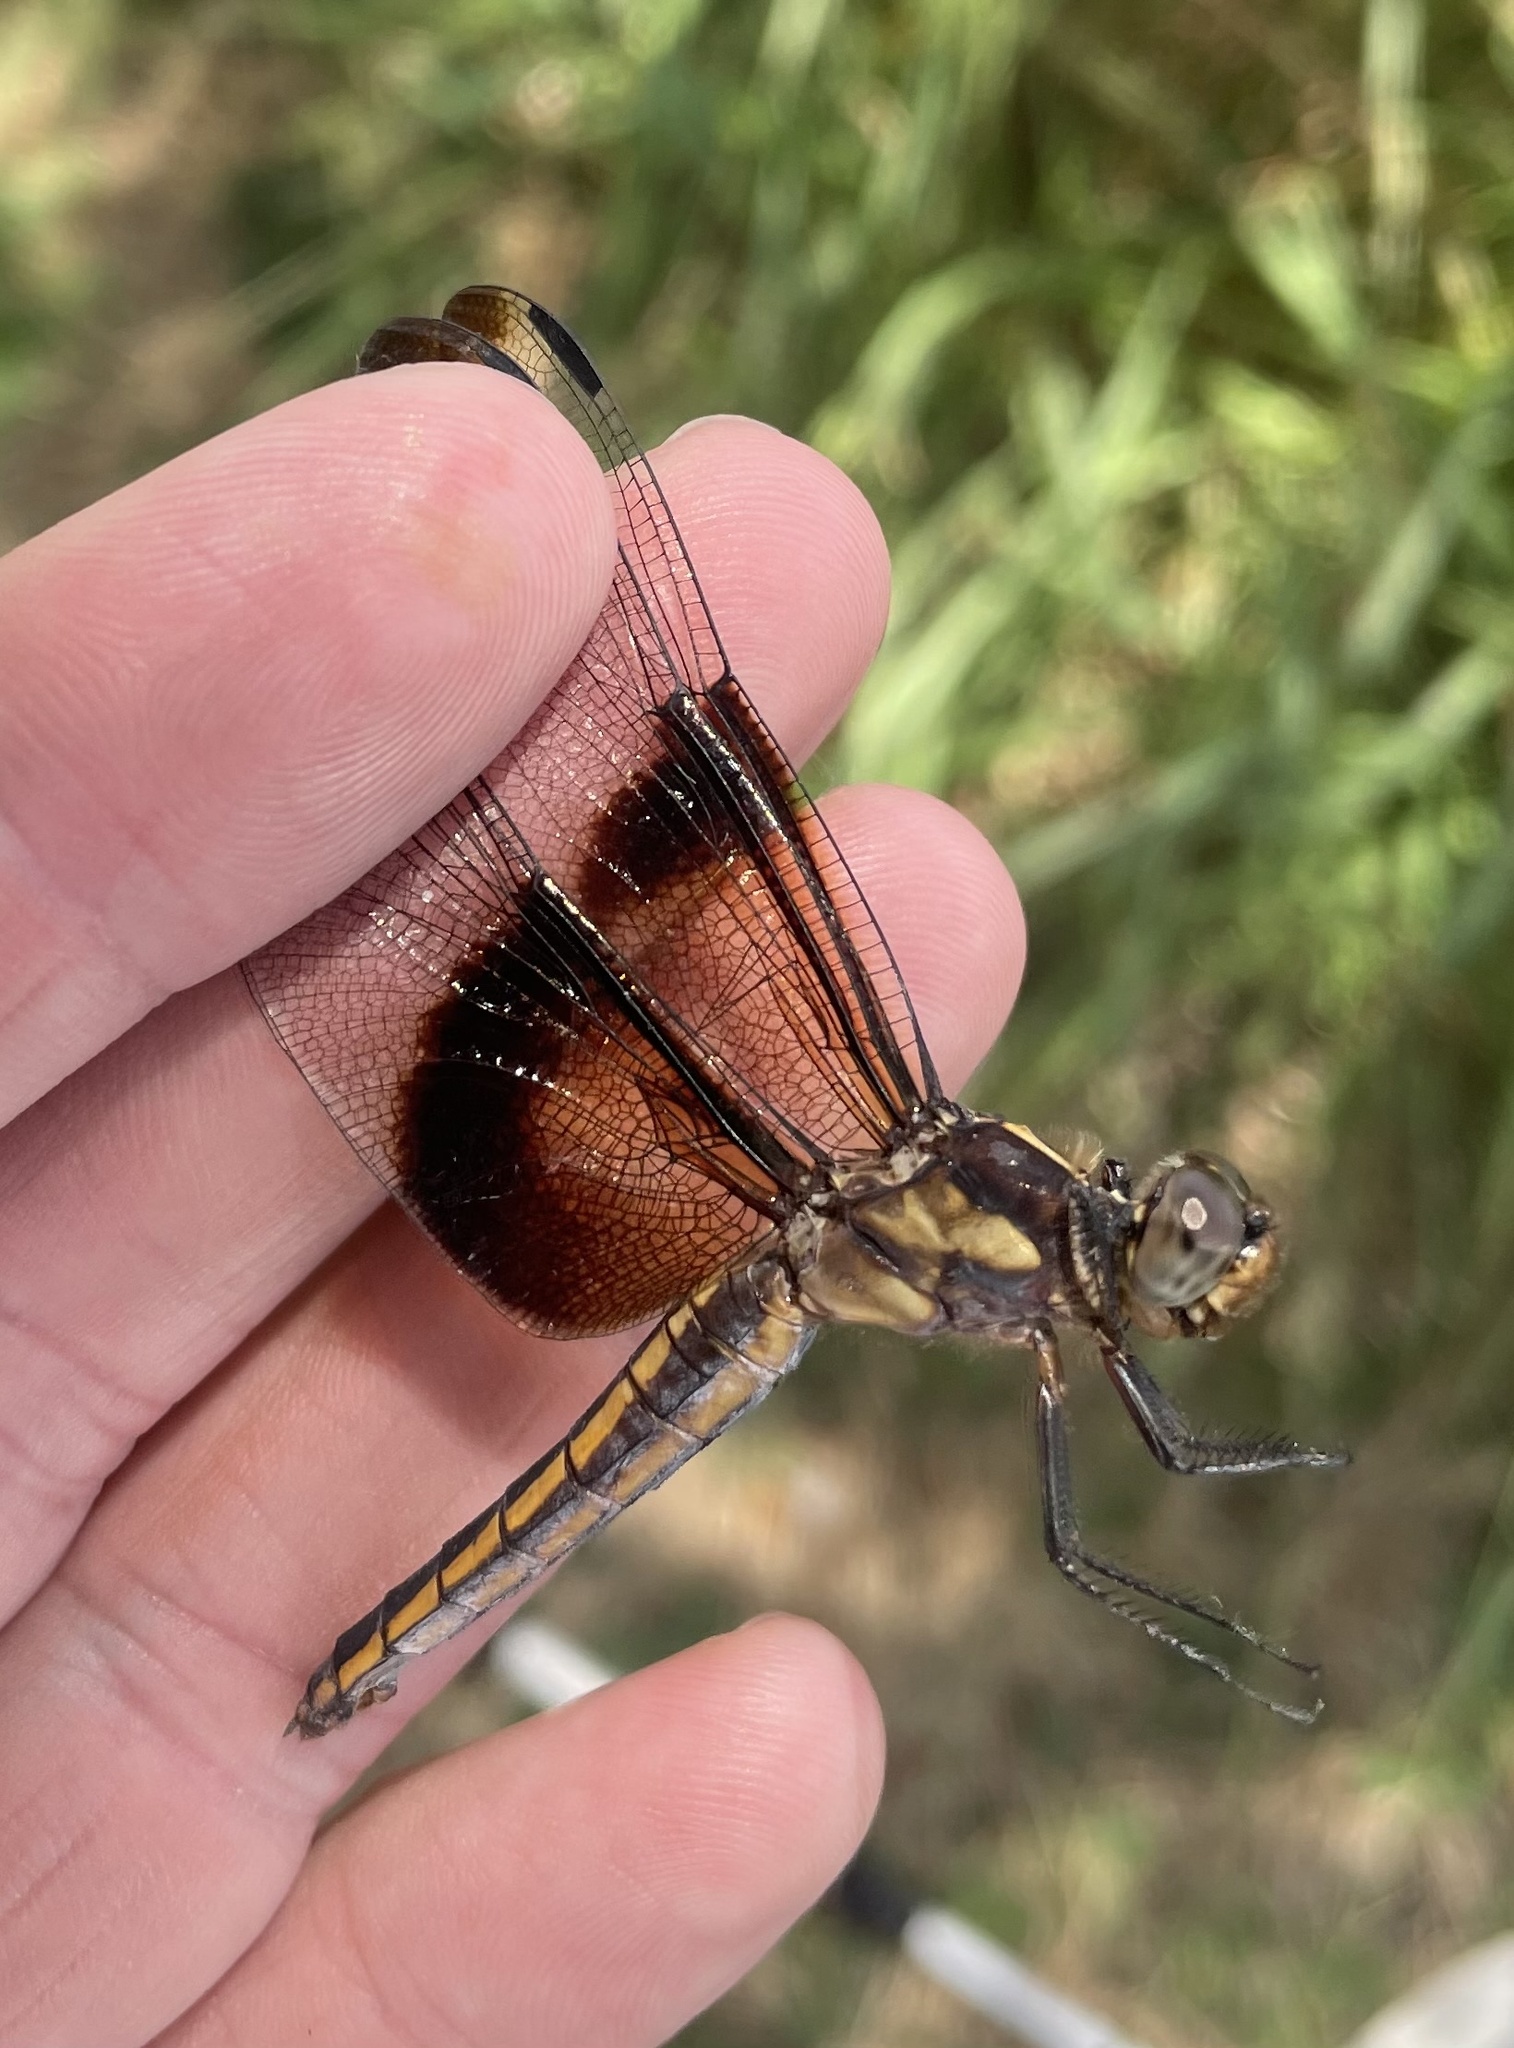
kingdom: Animalia
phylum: Arthropoda
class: Insecta
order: Odonata
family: Libellulidae
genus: Libellula
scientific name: Libellula luctuosa
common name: Widow skimmer
